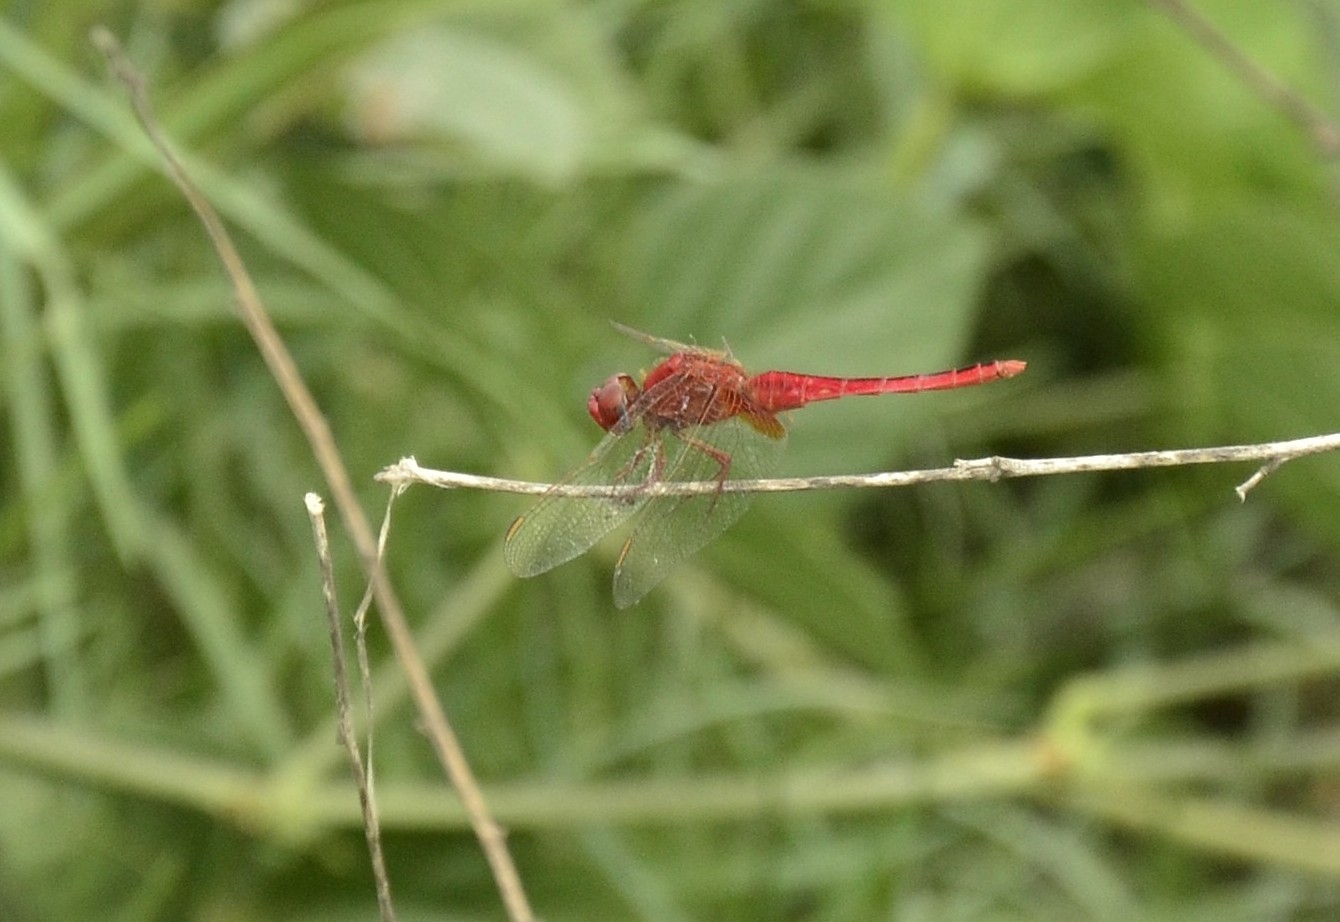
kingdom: Animalia
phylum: Arthropoda
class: Insecta
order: Odonata
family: Libellulidae
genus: Crocothemis
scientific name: Crocothemis servilia
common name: Scarlet skimmer
